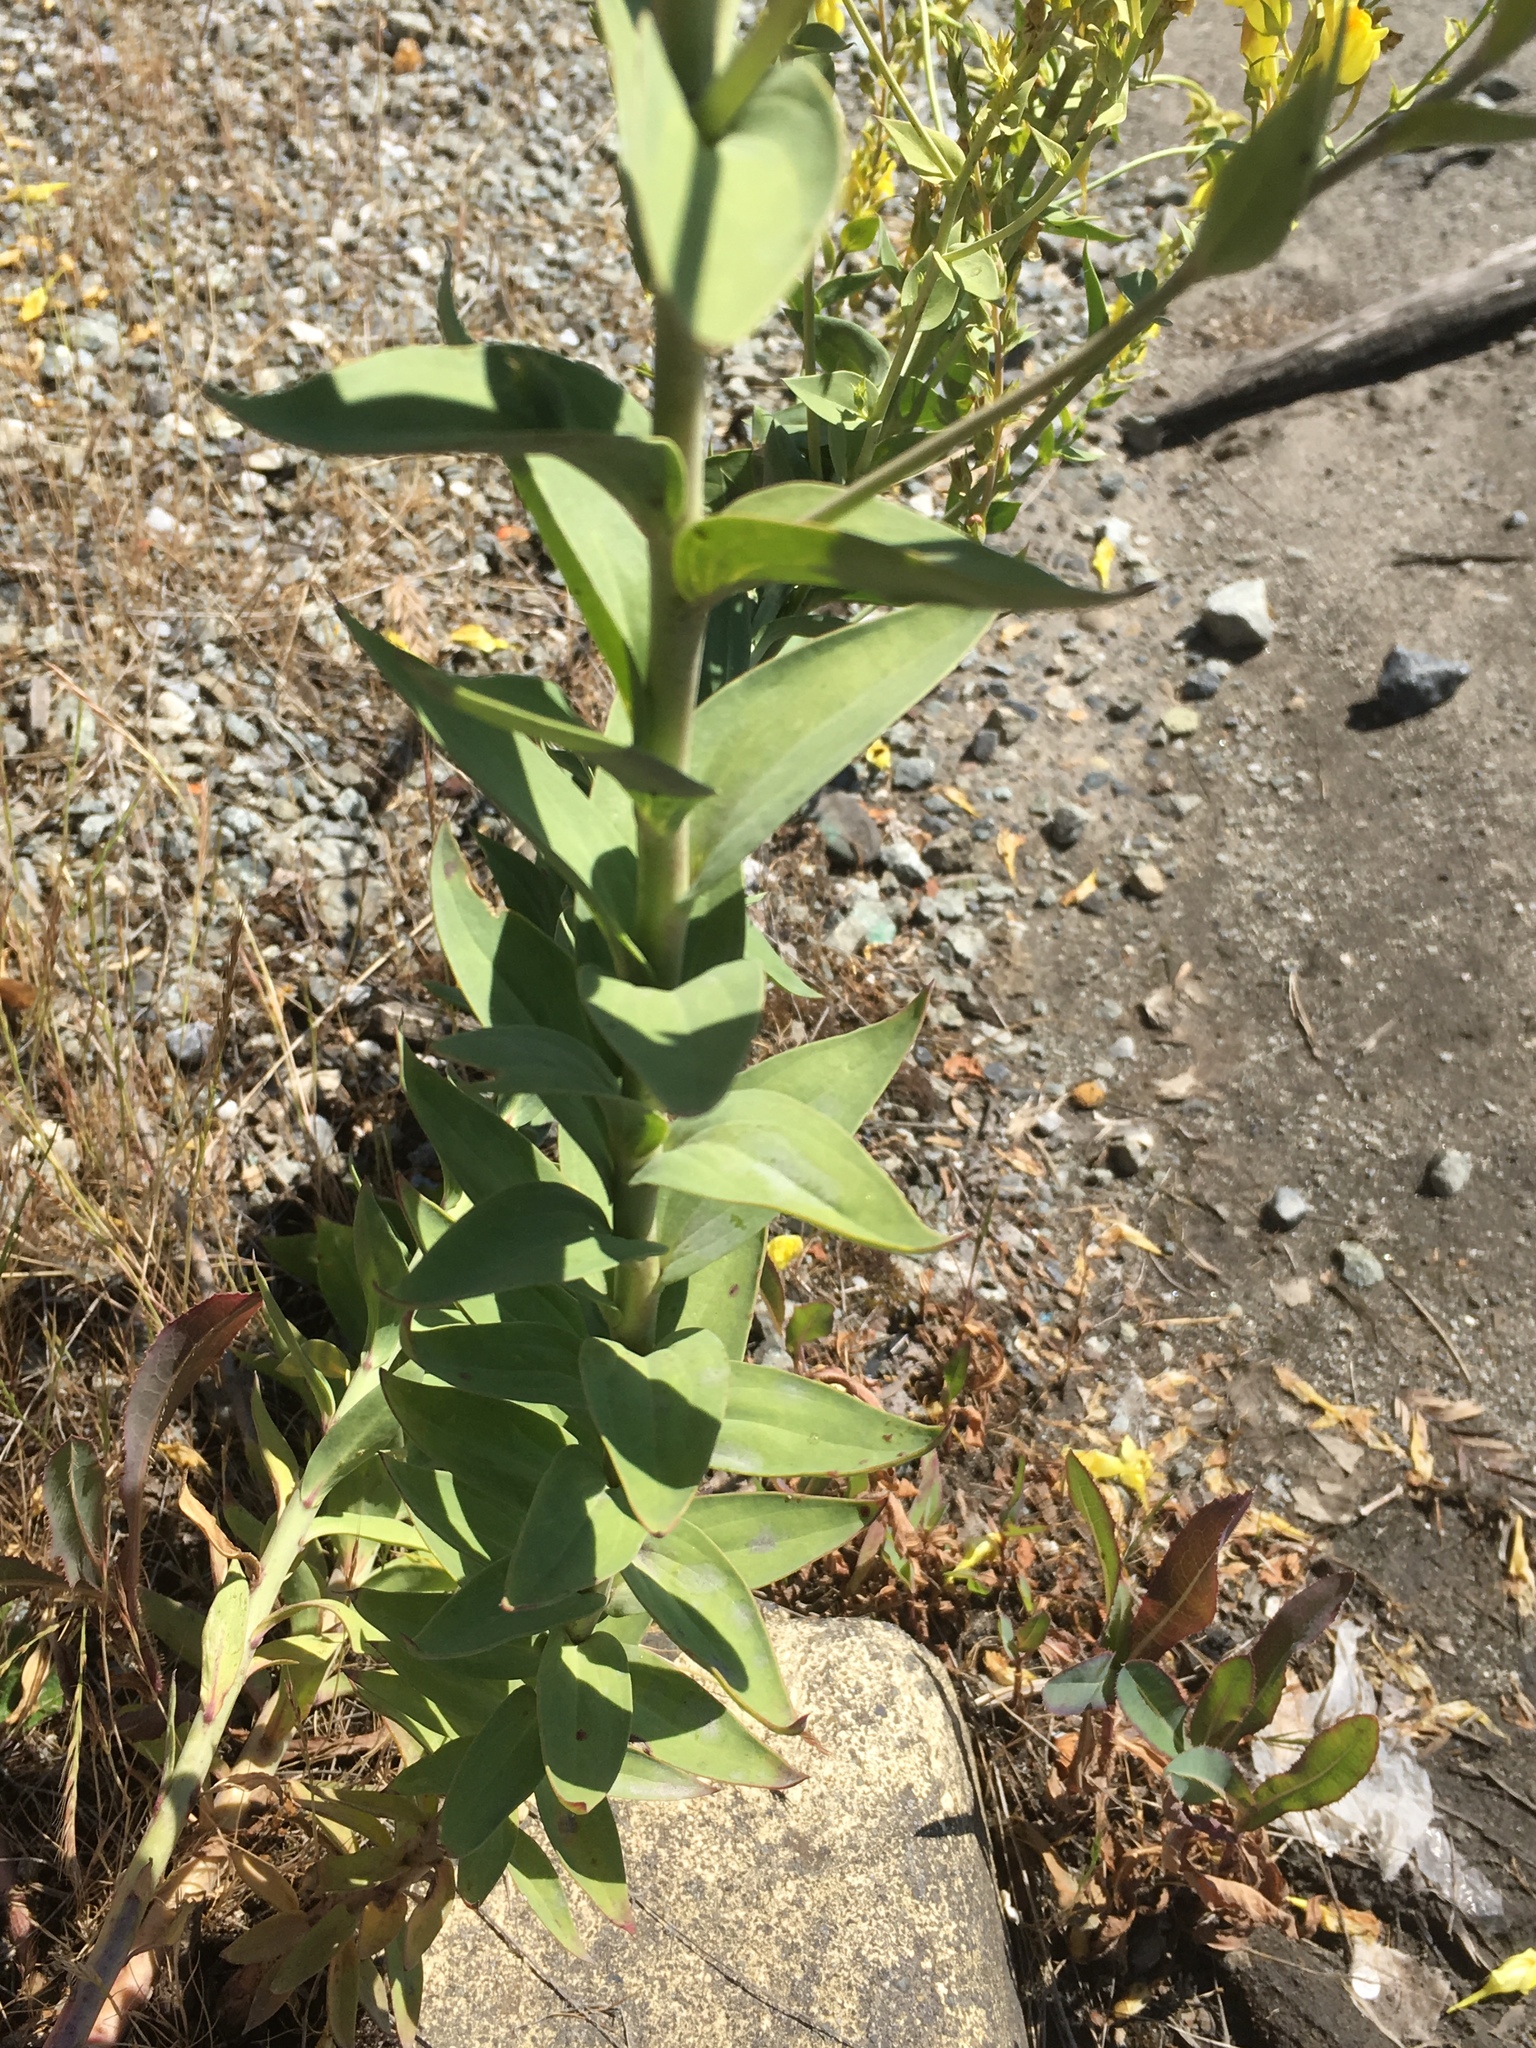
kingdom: Plantae
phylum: Tracheophyta
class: Magnoliopsida
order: Lamiales
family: Plantaginaceae
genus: Linaria
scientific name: Linaria dalmatica
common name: Dalmatian toadflax
